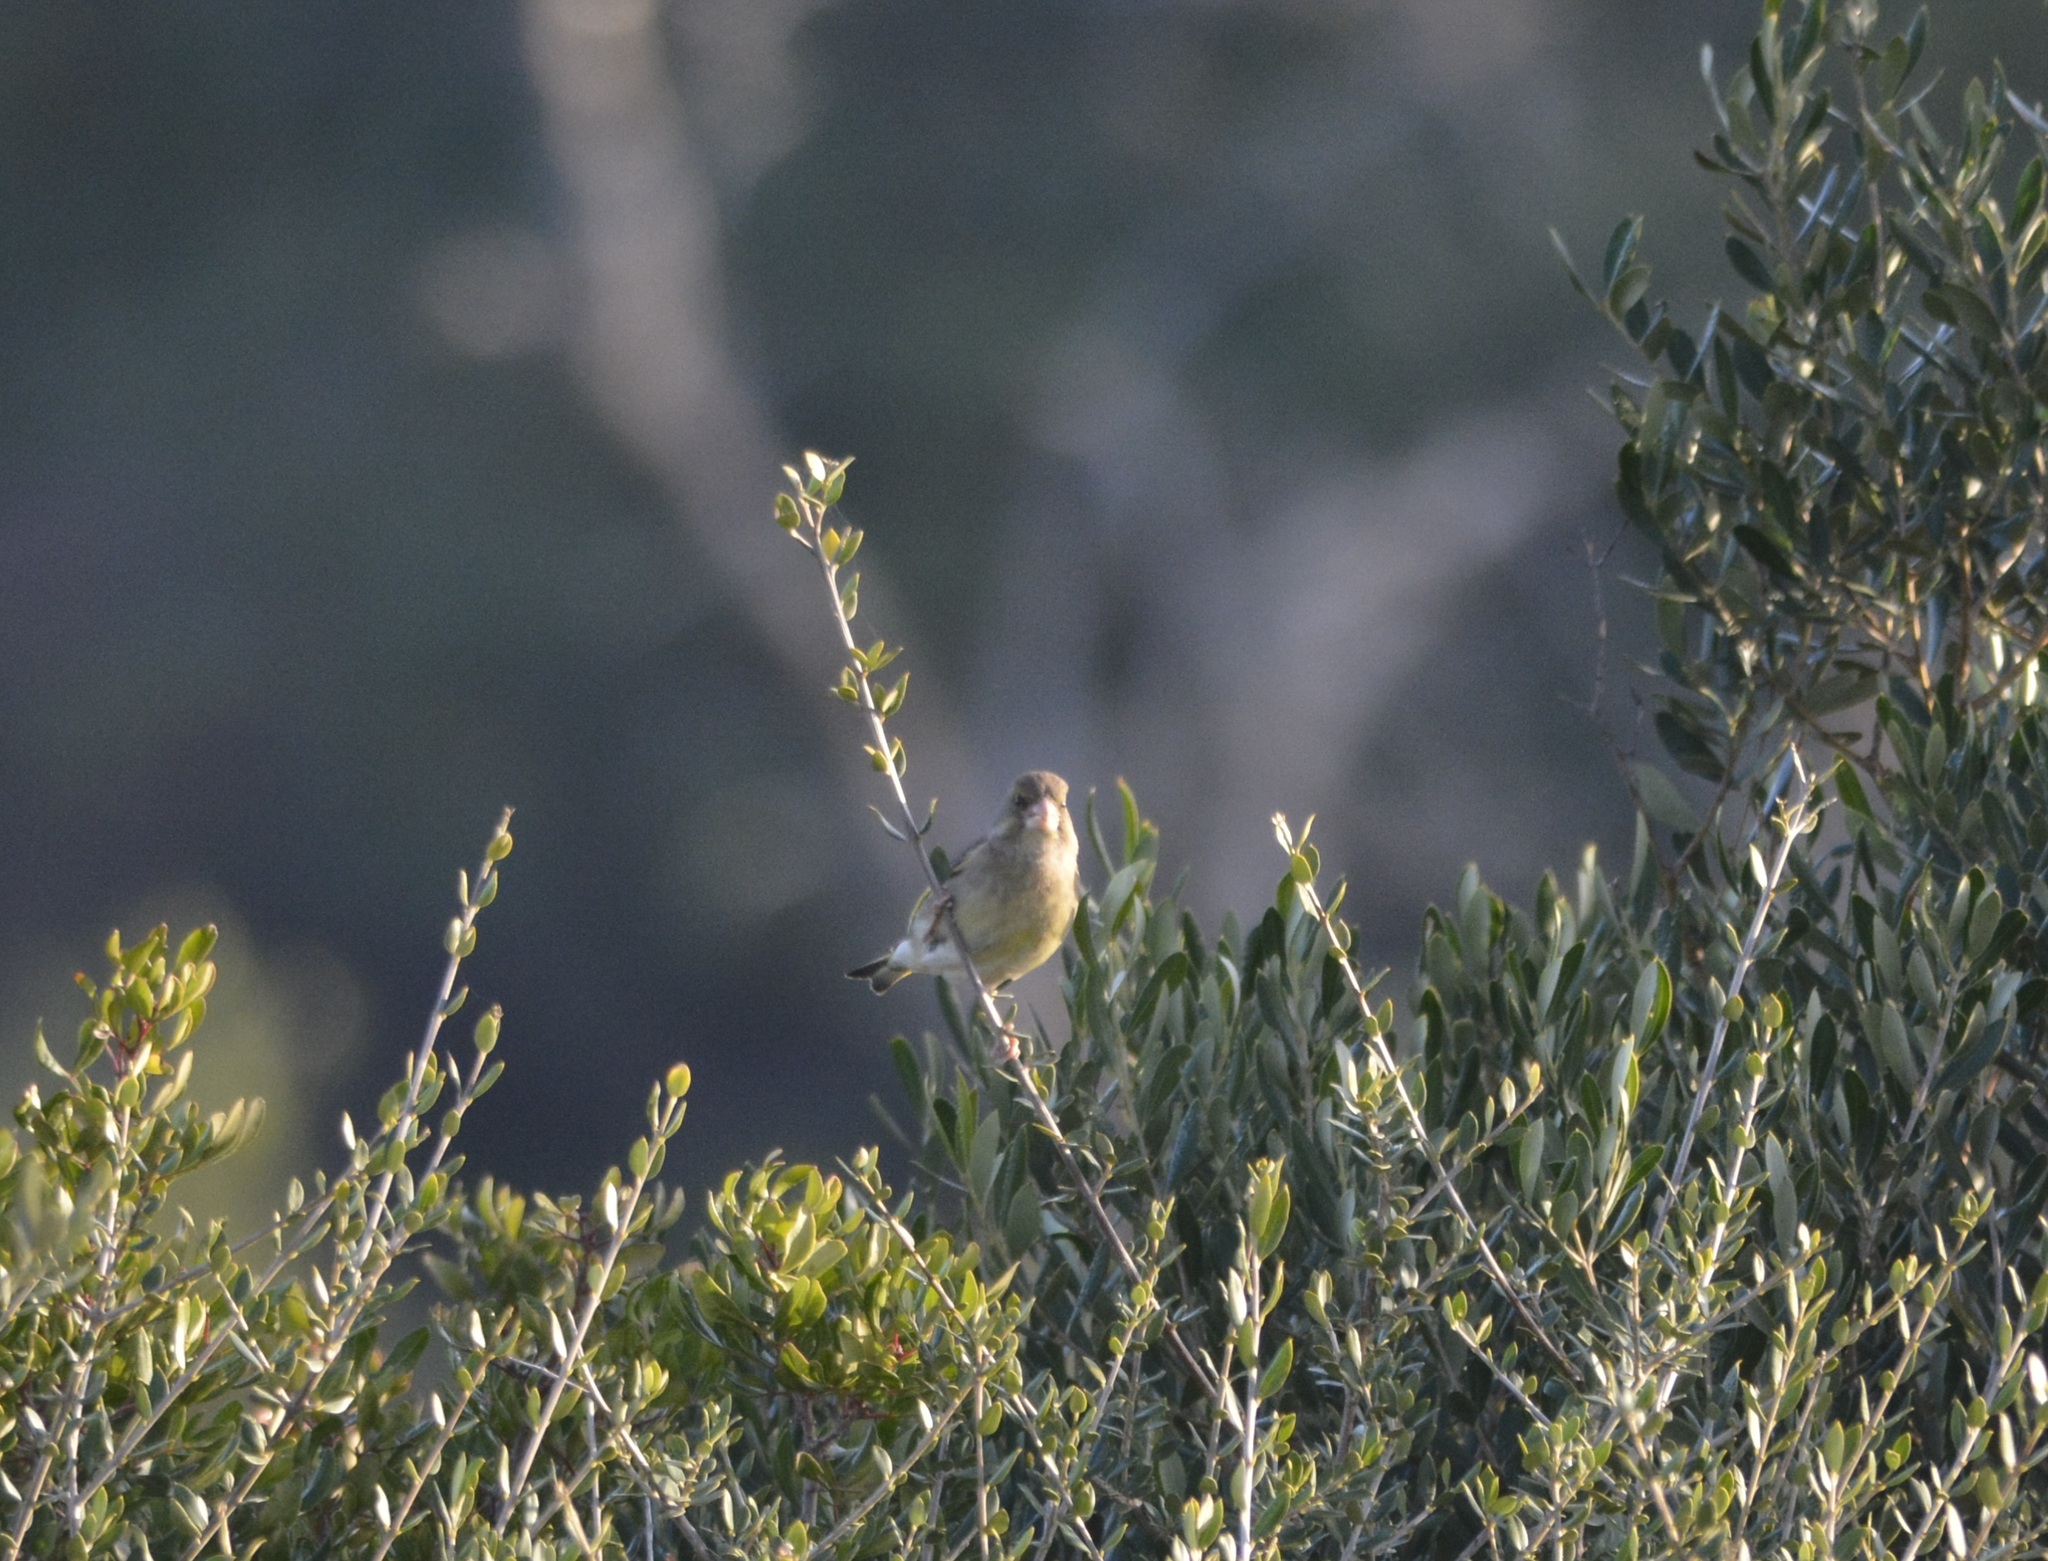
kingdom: Plantae
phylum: Tracheophyta
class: Liliopsida
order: Poales
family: Poaceae
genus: Chloris
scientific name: Chloris chloris
